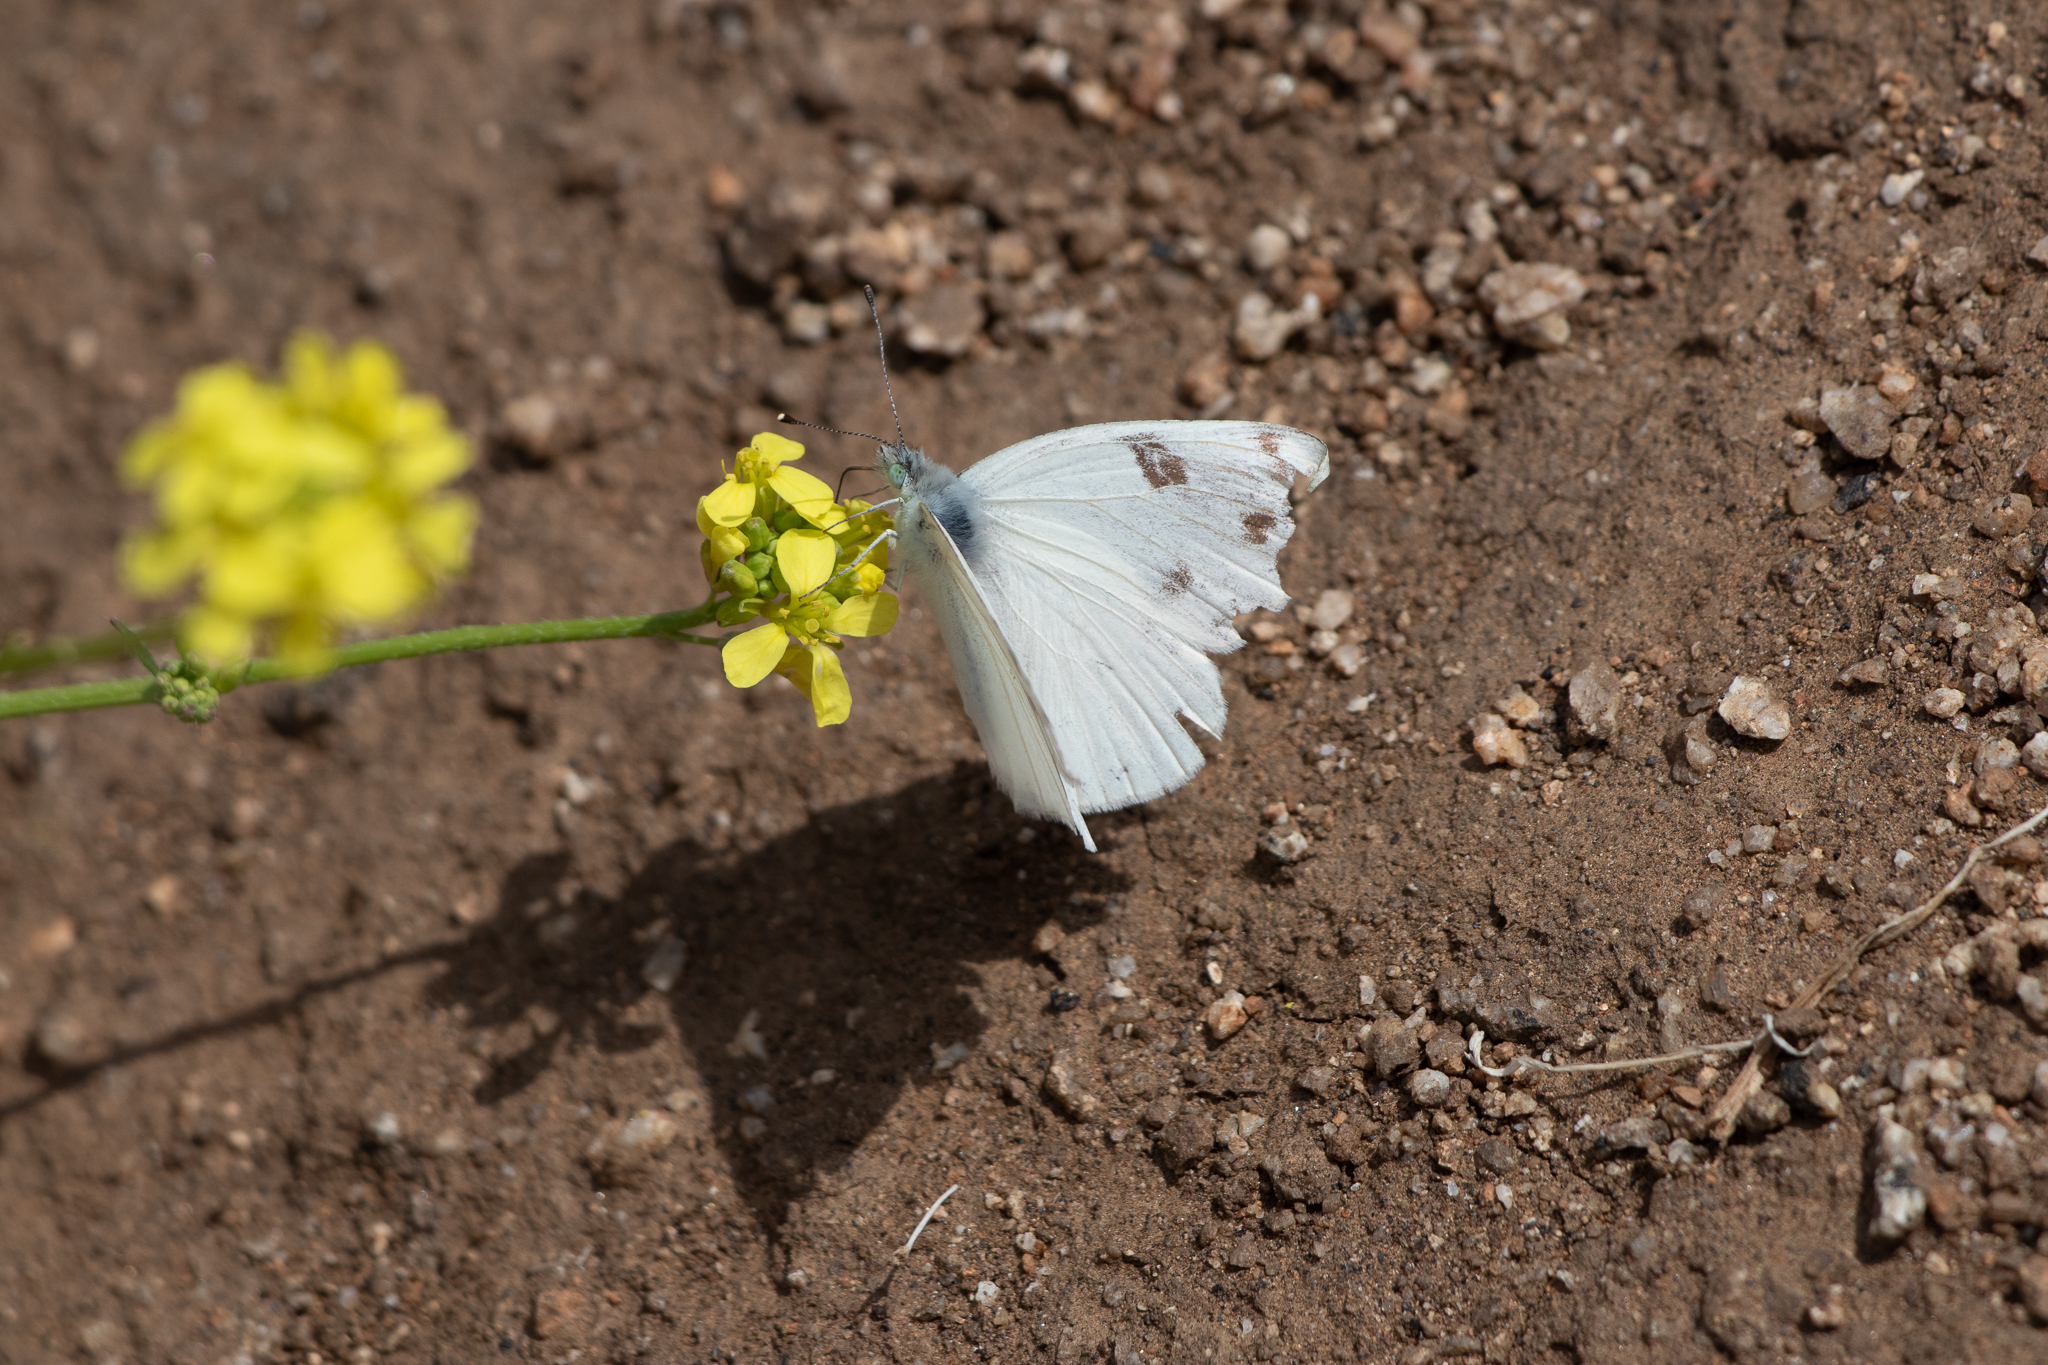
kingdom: Animalia
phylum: Arthropoda
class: Insecta
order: Lepidoptera
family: Pieridae
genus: Pontia
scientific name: Pontia protodice
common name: Checkered white
